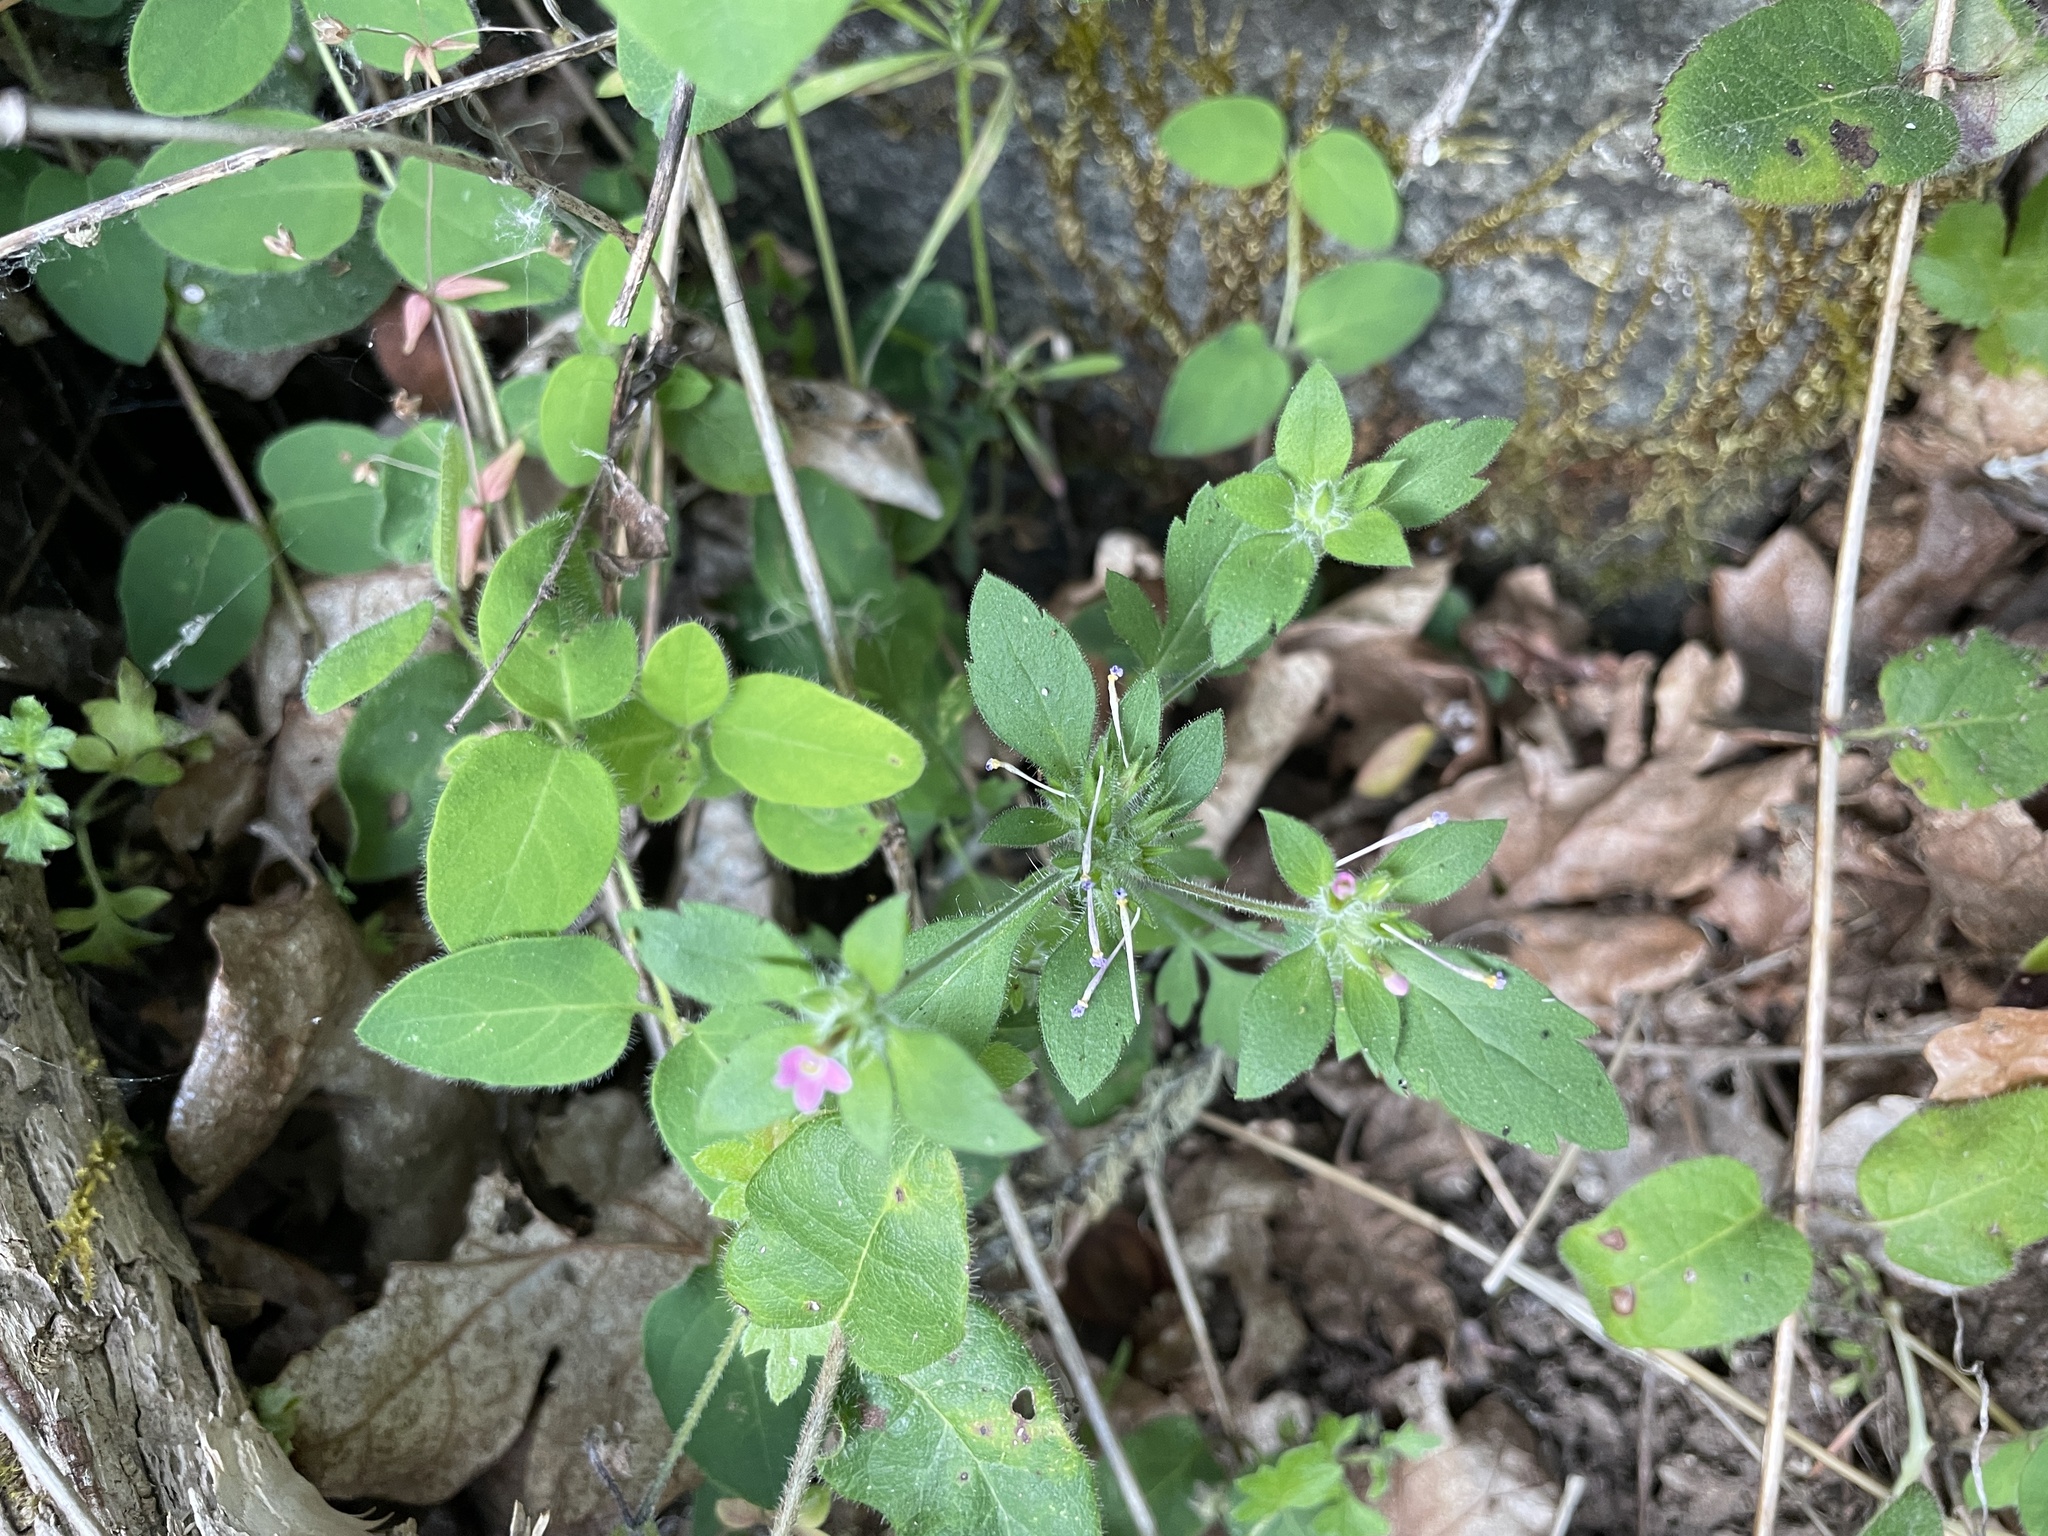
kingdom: Plantae
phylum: Tracheophyta
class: Magnoliopsida
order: Ericales
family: Polemoniaceae
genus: Collomia
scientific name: Collomia heterophylla
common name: Variable-leaved collomia
